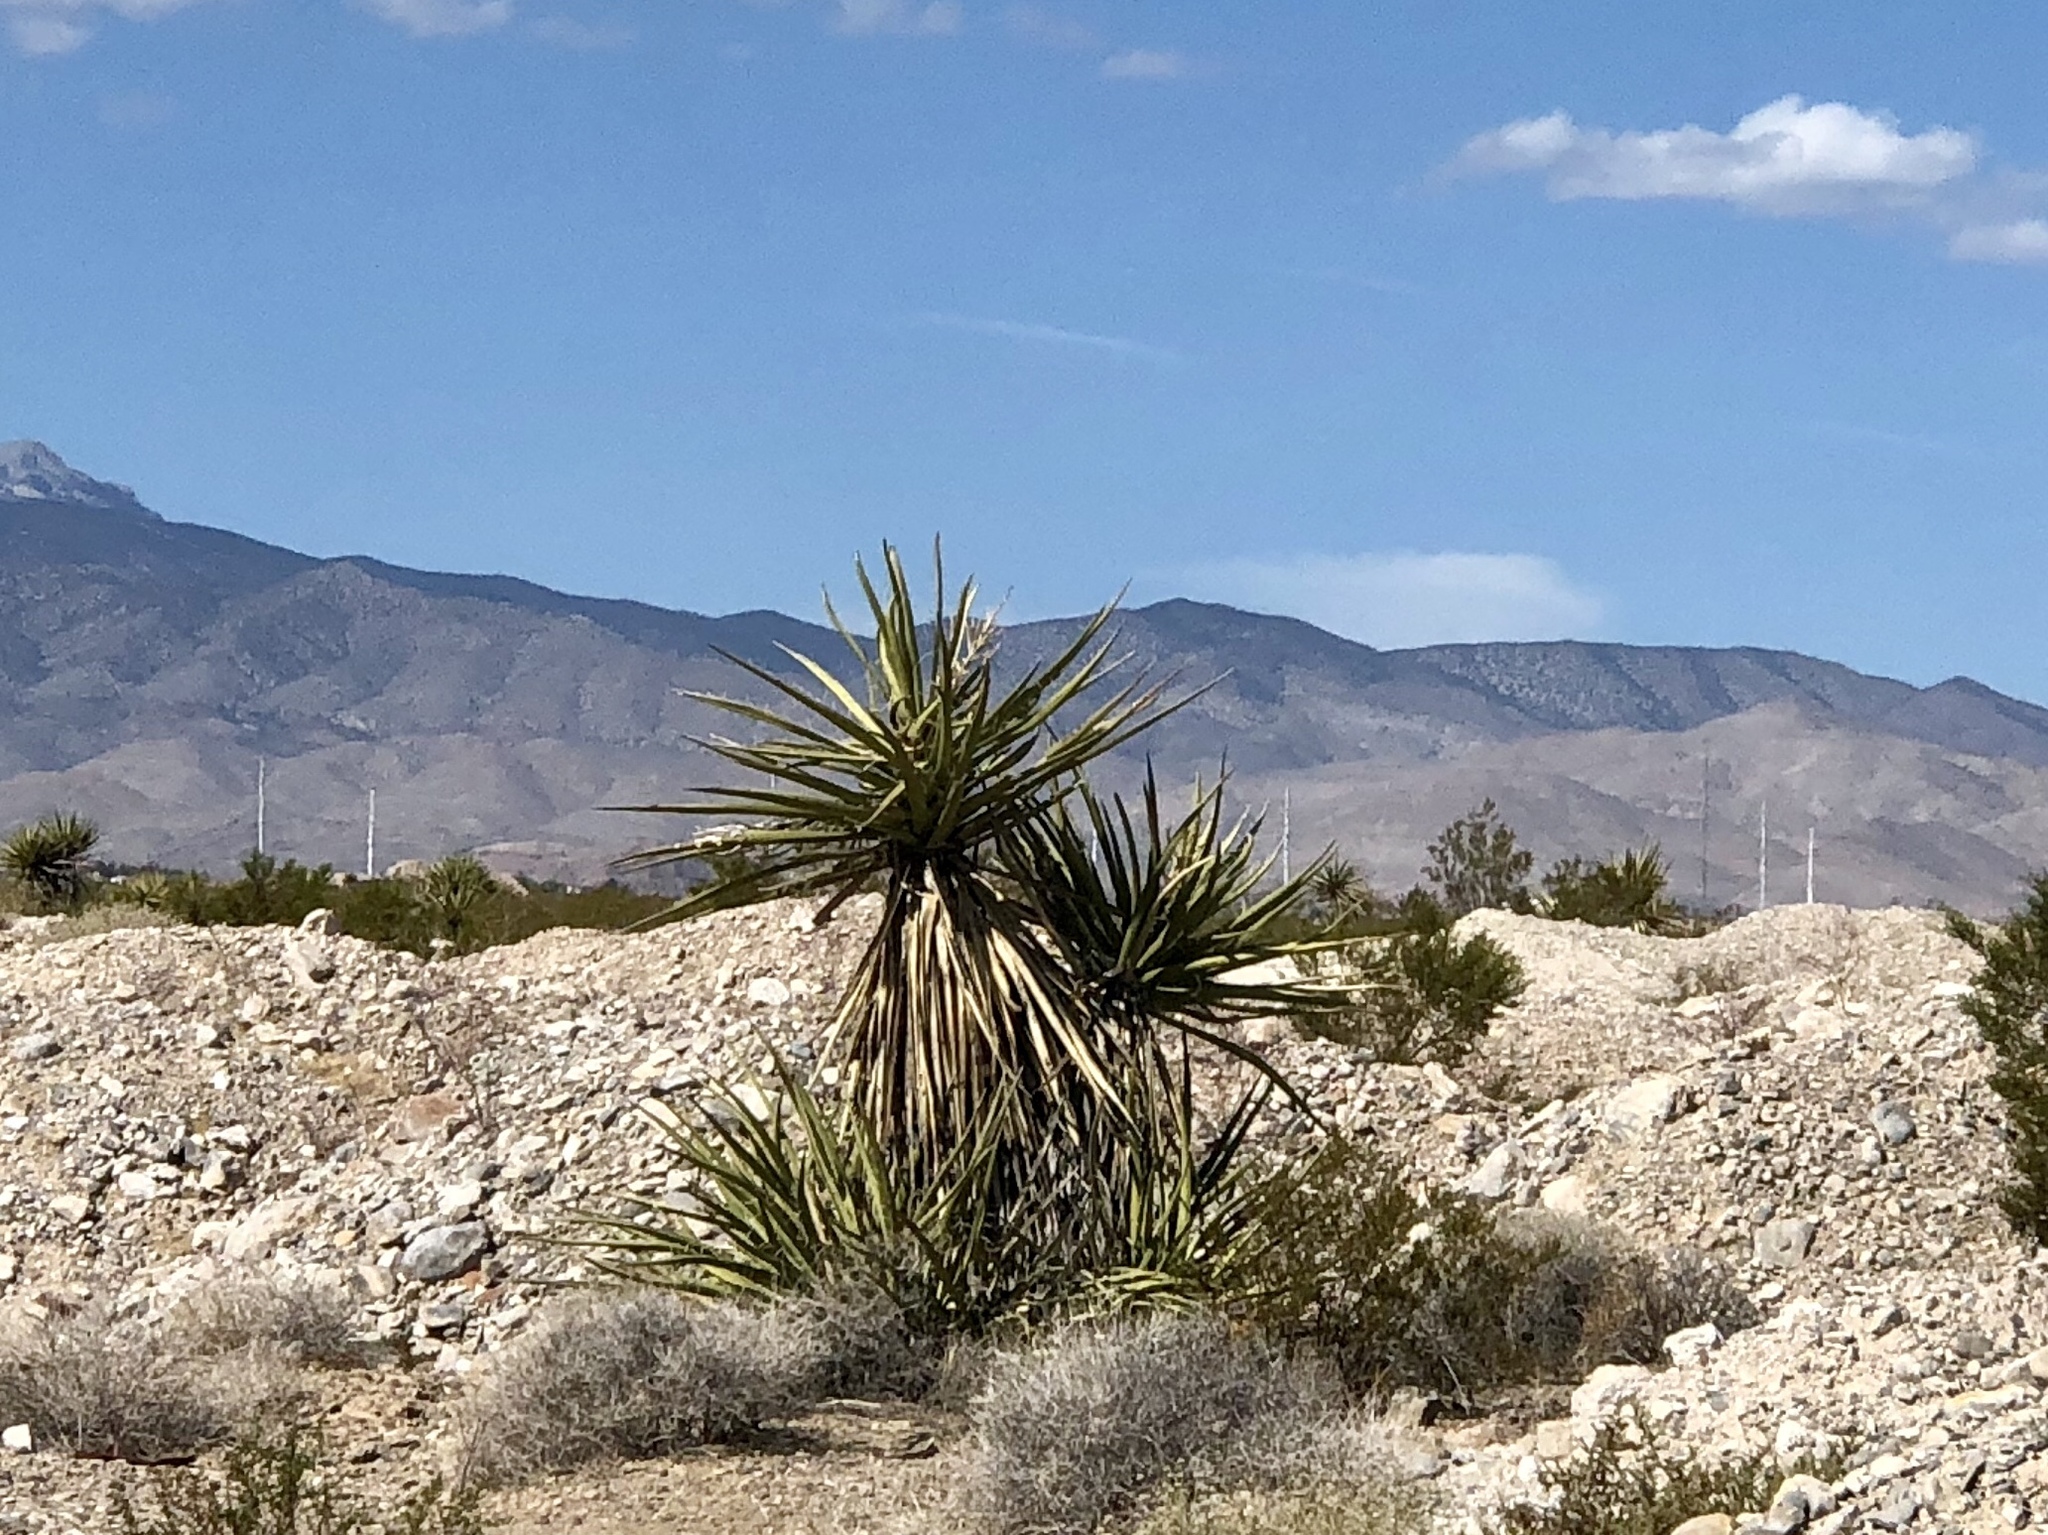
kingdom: Plantae
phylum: Tracheophyta
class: Liliopsida
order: Asparagales
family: Asparagaceae
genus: Yucca
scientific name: Yucca schidigera
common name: Mojave yucca
